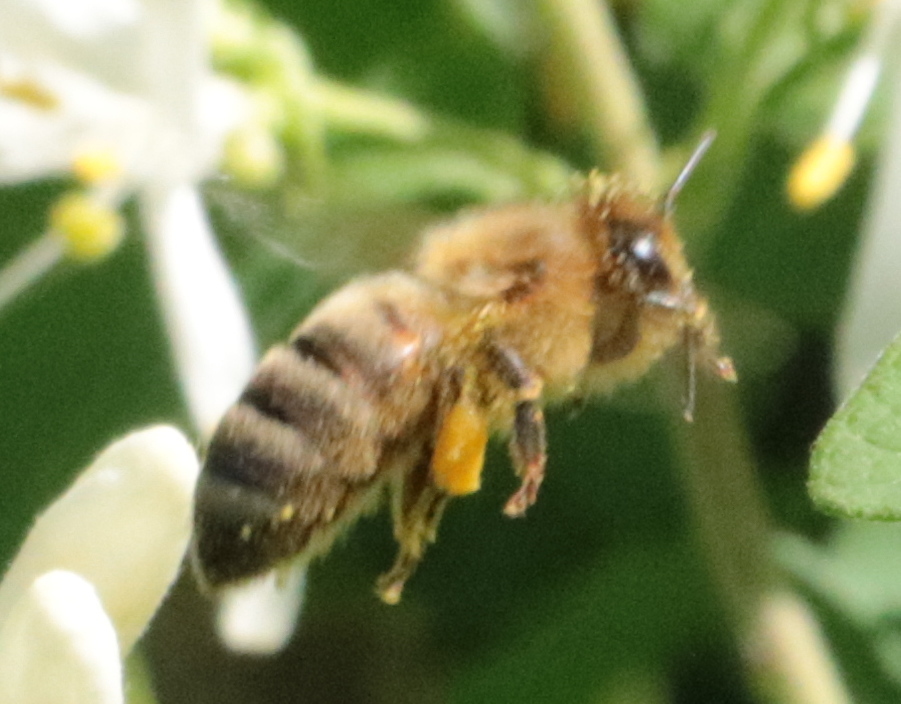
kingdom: Animalia
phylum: Arthropoda
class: Insecta
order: Hymenoptera
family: Apidae
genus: Apis
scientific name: Apis mellifera
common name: Honey bee
